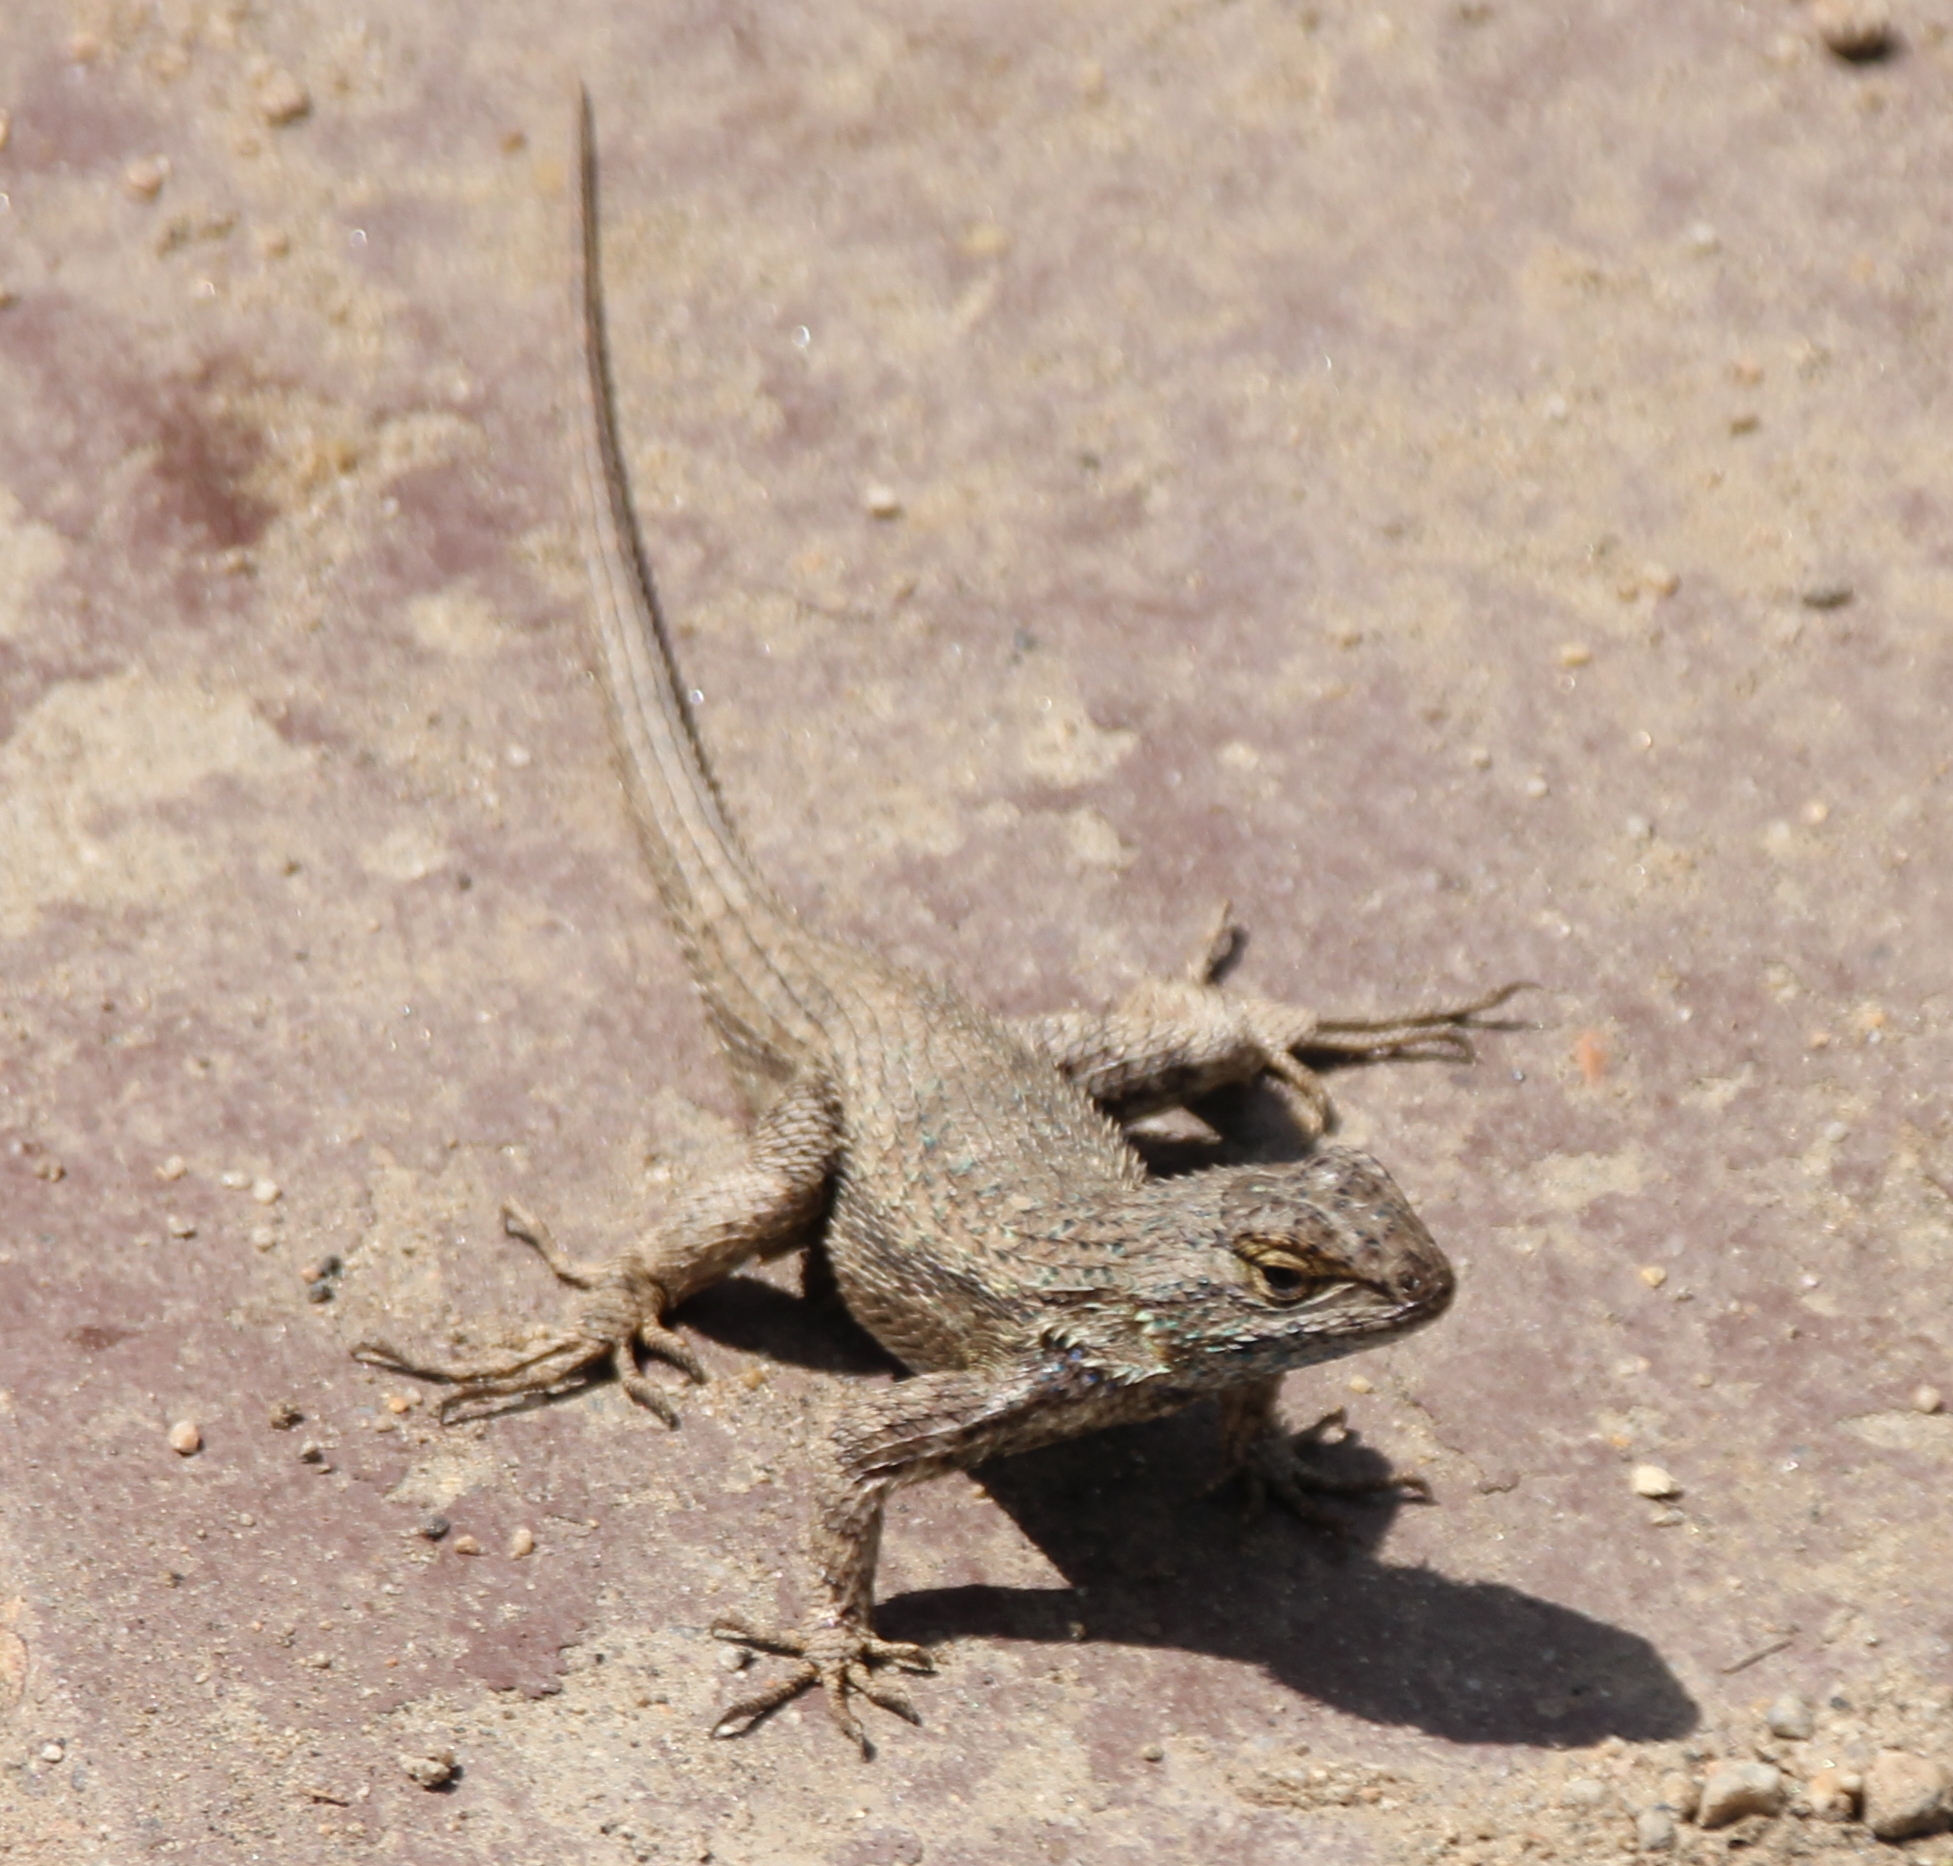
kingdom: Animalia
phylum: Chordata
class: Squamata
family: Phrynosomatidae
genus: Sceloporus
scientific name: Sceloporus occidentalis
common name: Western fence lizard
